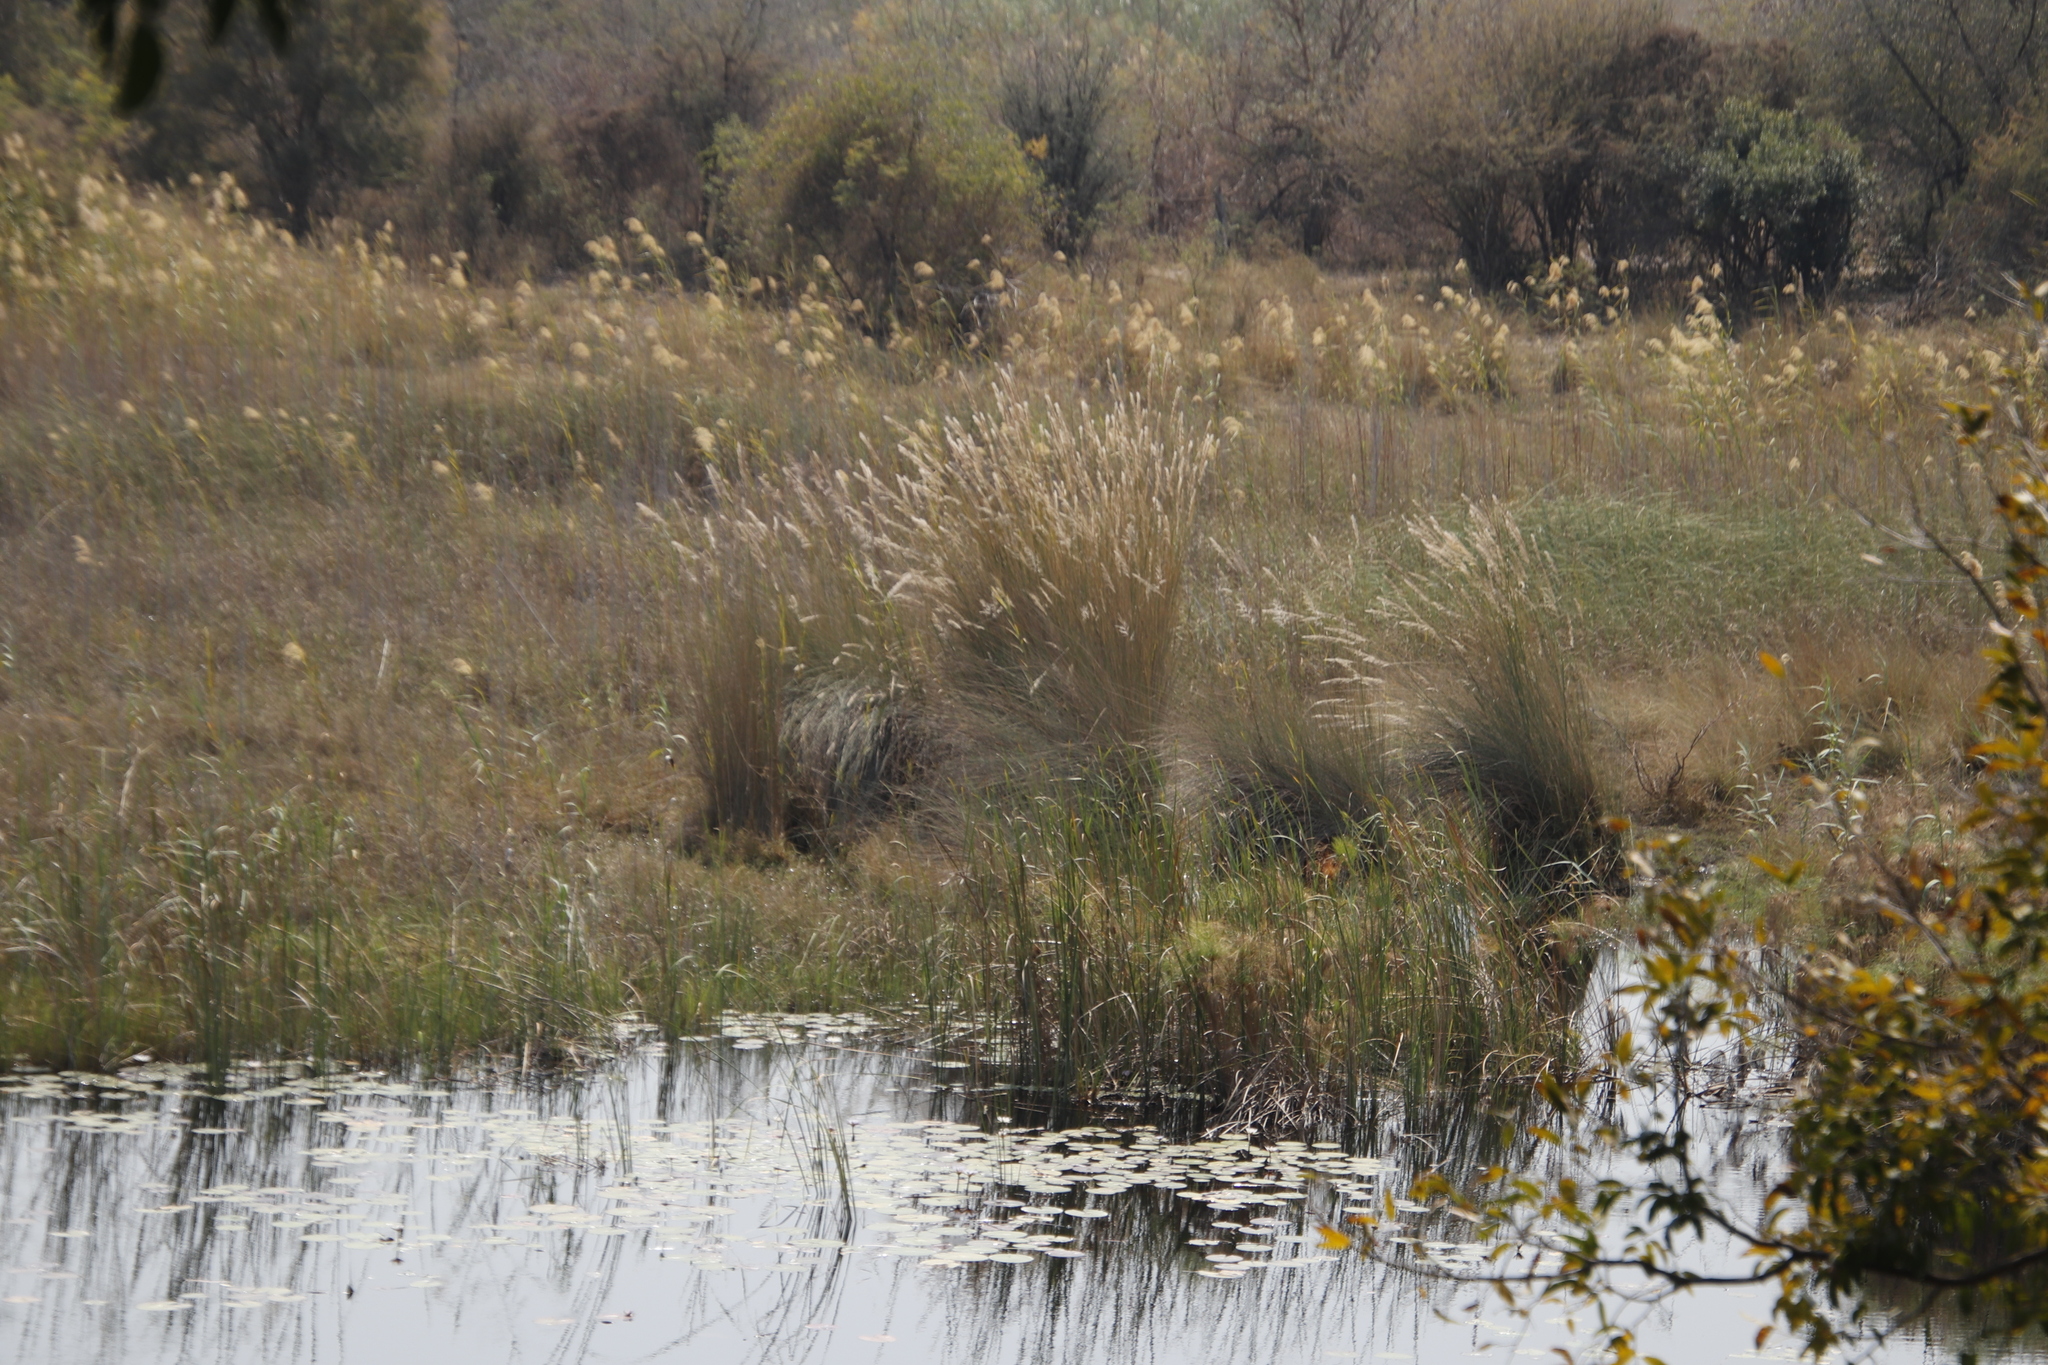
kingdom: Plantae
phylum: Tracheophyta
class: Liliopsida
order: Poales
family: Cyperaceae
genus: Cyperus
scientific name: Cyperus papyrus
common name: Papyrus
